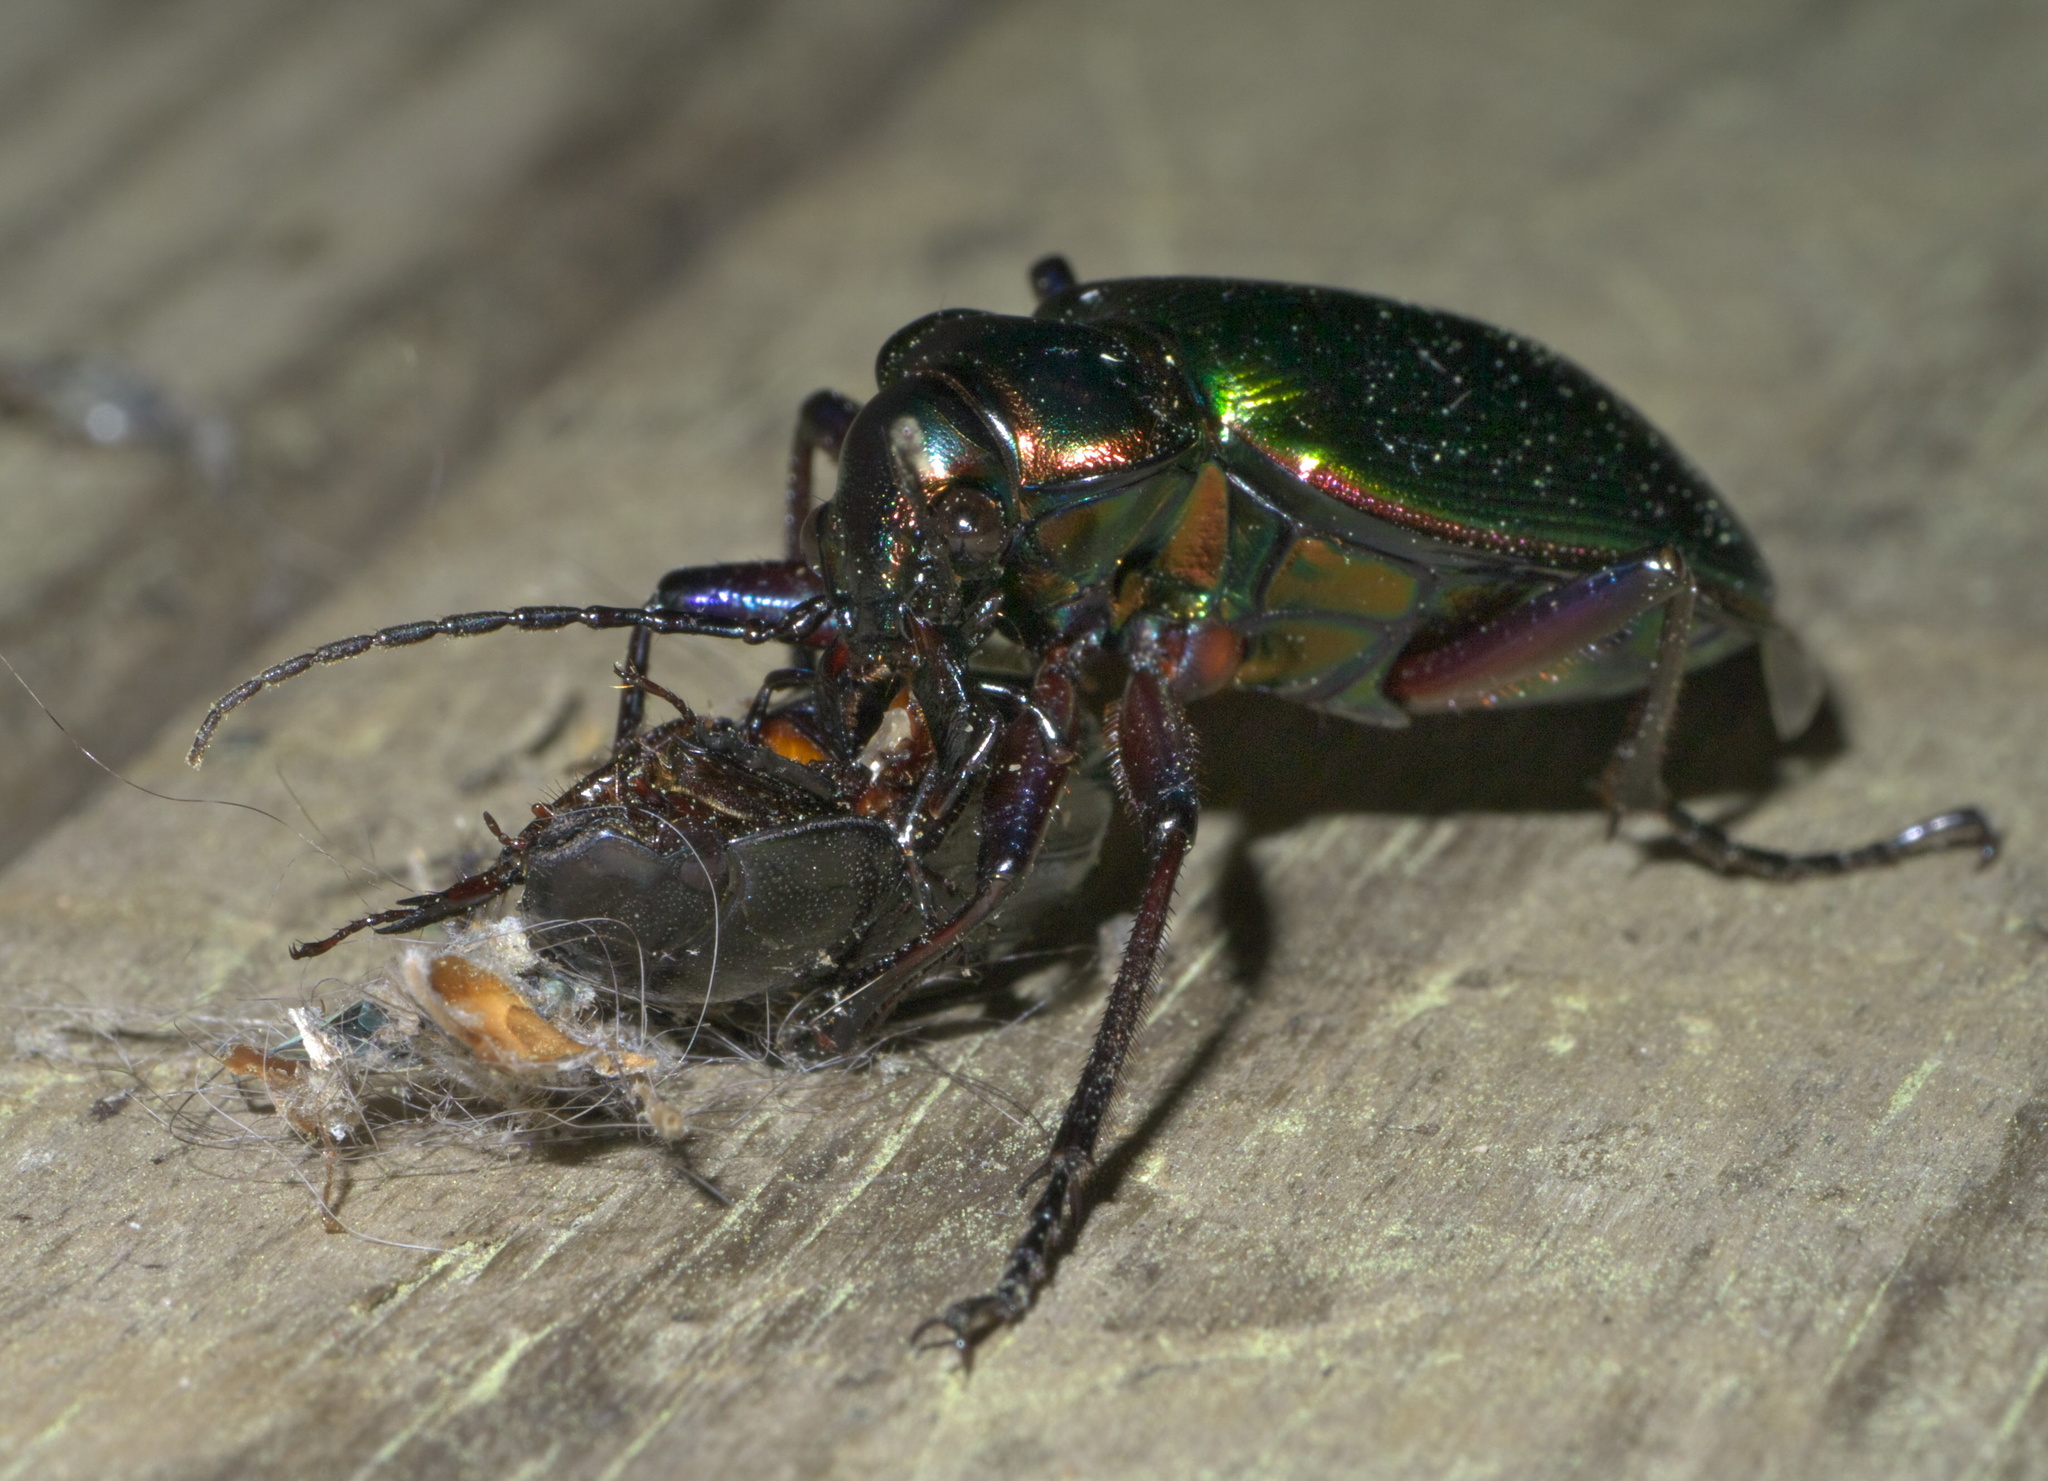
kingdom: Animalia
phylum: Arthropoda
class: Insecta
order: Coleoptera
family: Carabidae
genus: Calosoma
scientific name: Calosoma scrutator
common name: Fiery searcher beetle
